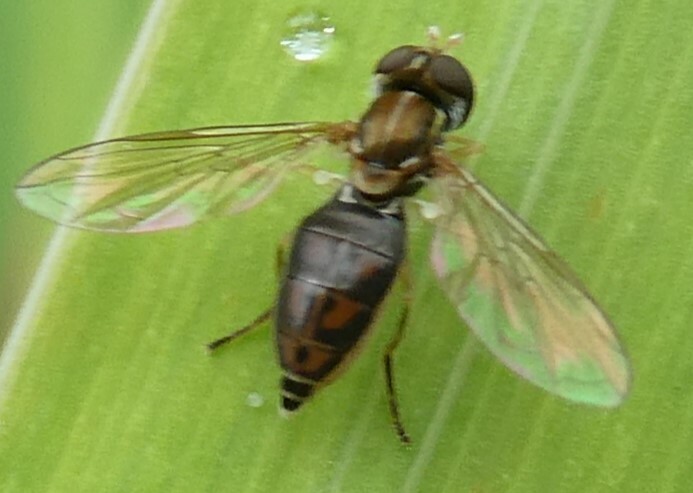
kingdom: Animalia
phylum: Arthropoda
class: Insecta
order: Diptera
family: Syrphidae
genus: Toxomerus
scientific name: Toxomerus marginatus
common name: Syrphid fly
